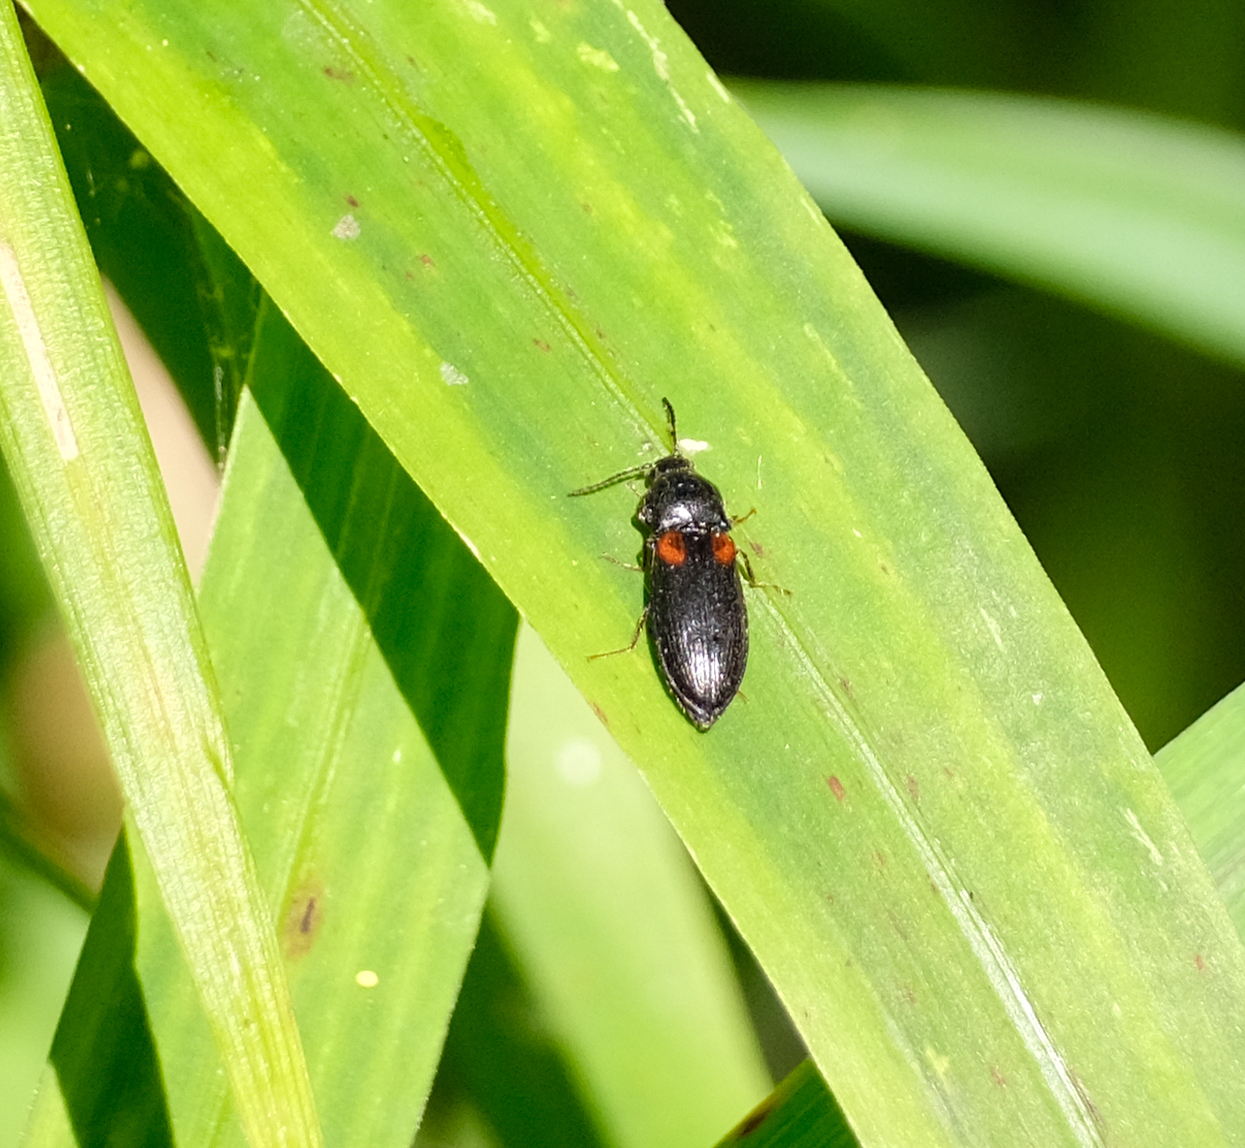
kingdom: Animalia
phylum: Arthropoda
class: Insecta
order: Coleoptera
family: Elateridae
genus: Calambus
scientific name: Calambus bipustulatus
